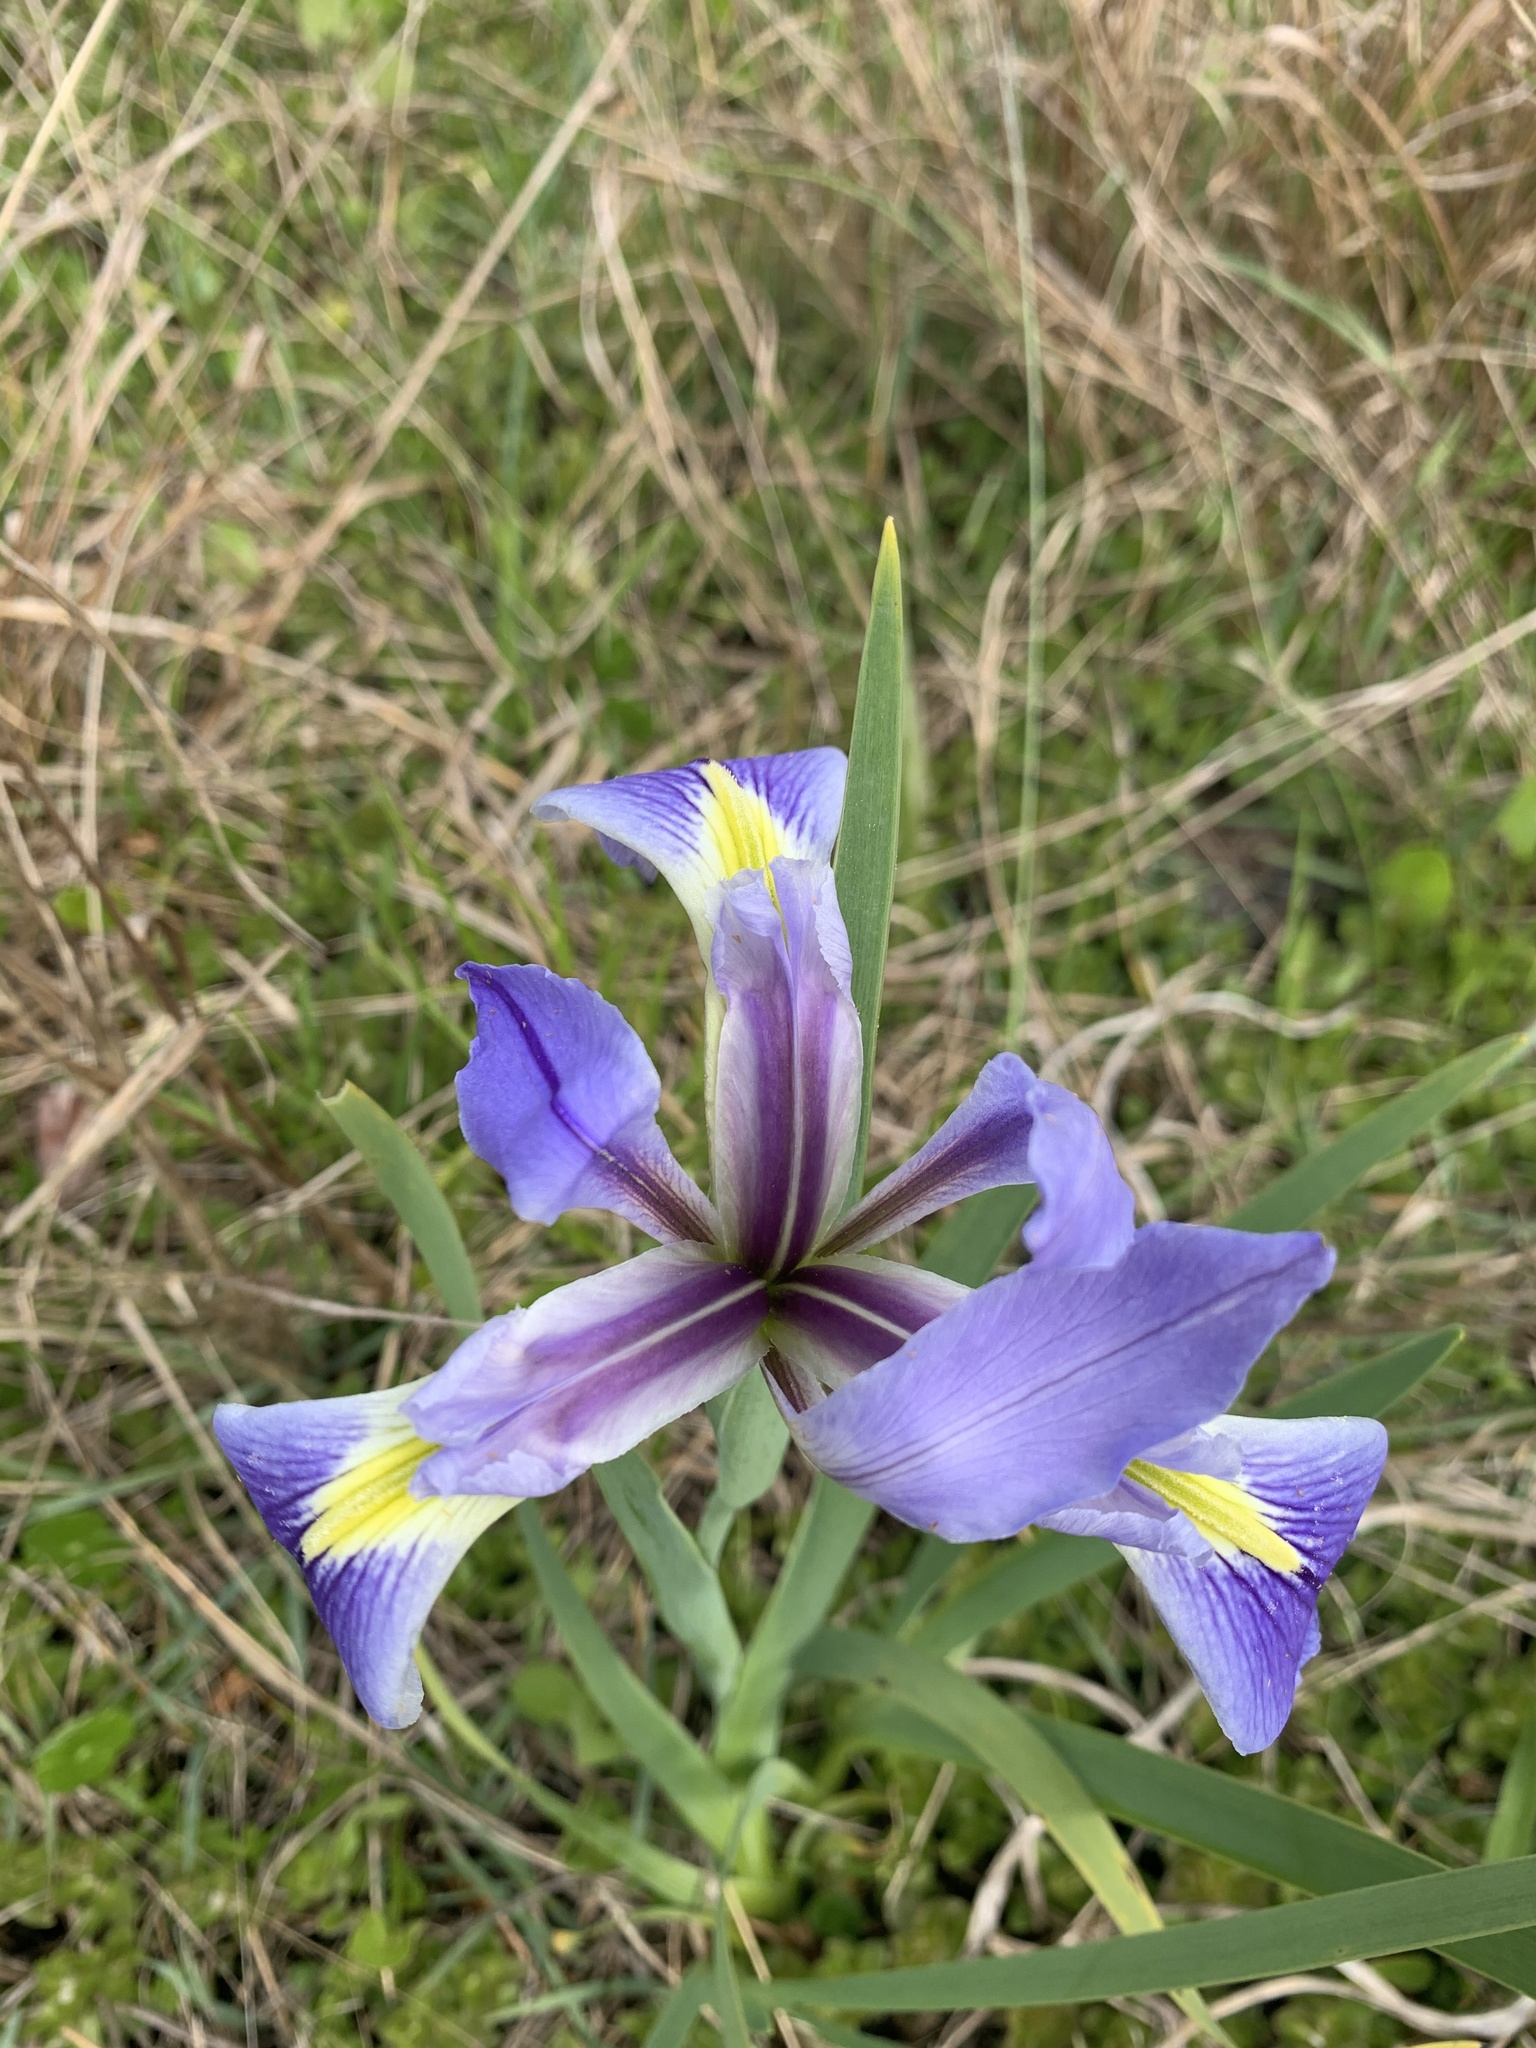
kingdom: Plantae
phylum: Tracheophyta
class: Liliopsida
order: Asparagales
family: Iridaceae
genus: Iris
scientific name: Iris savannarum
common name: Prairie iris
